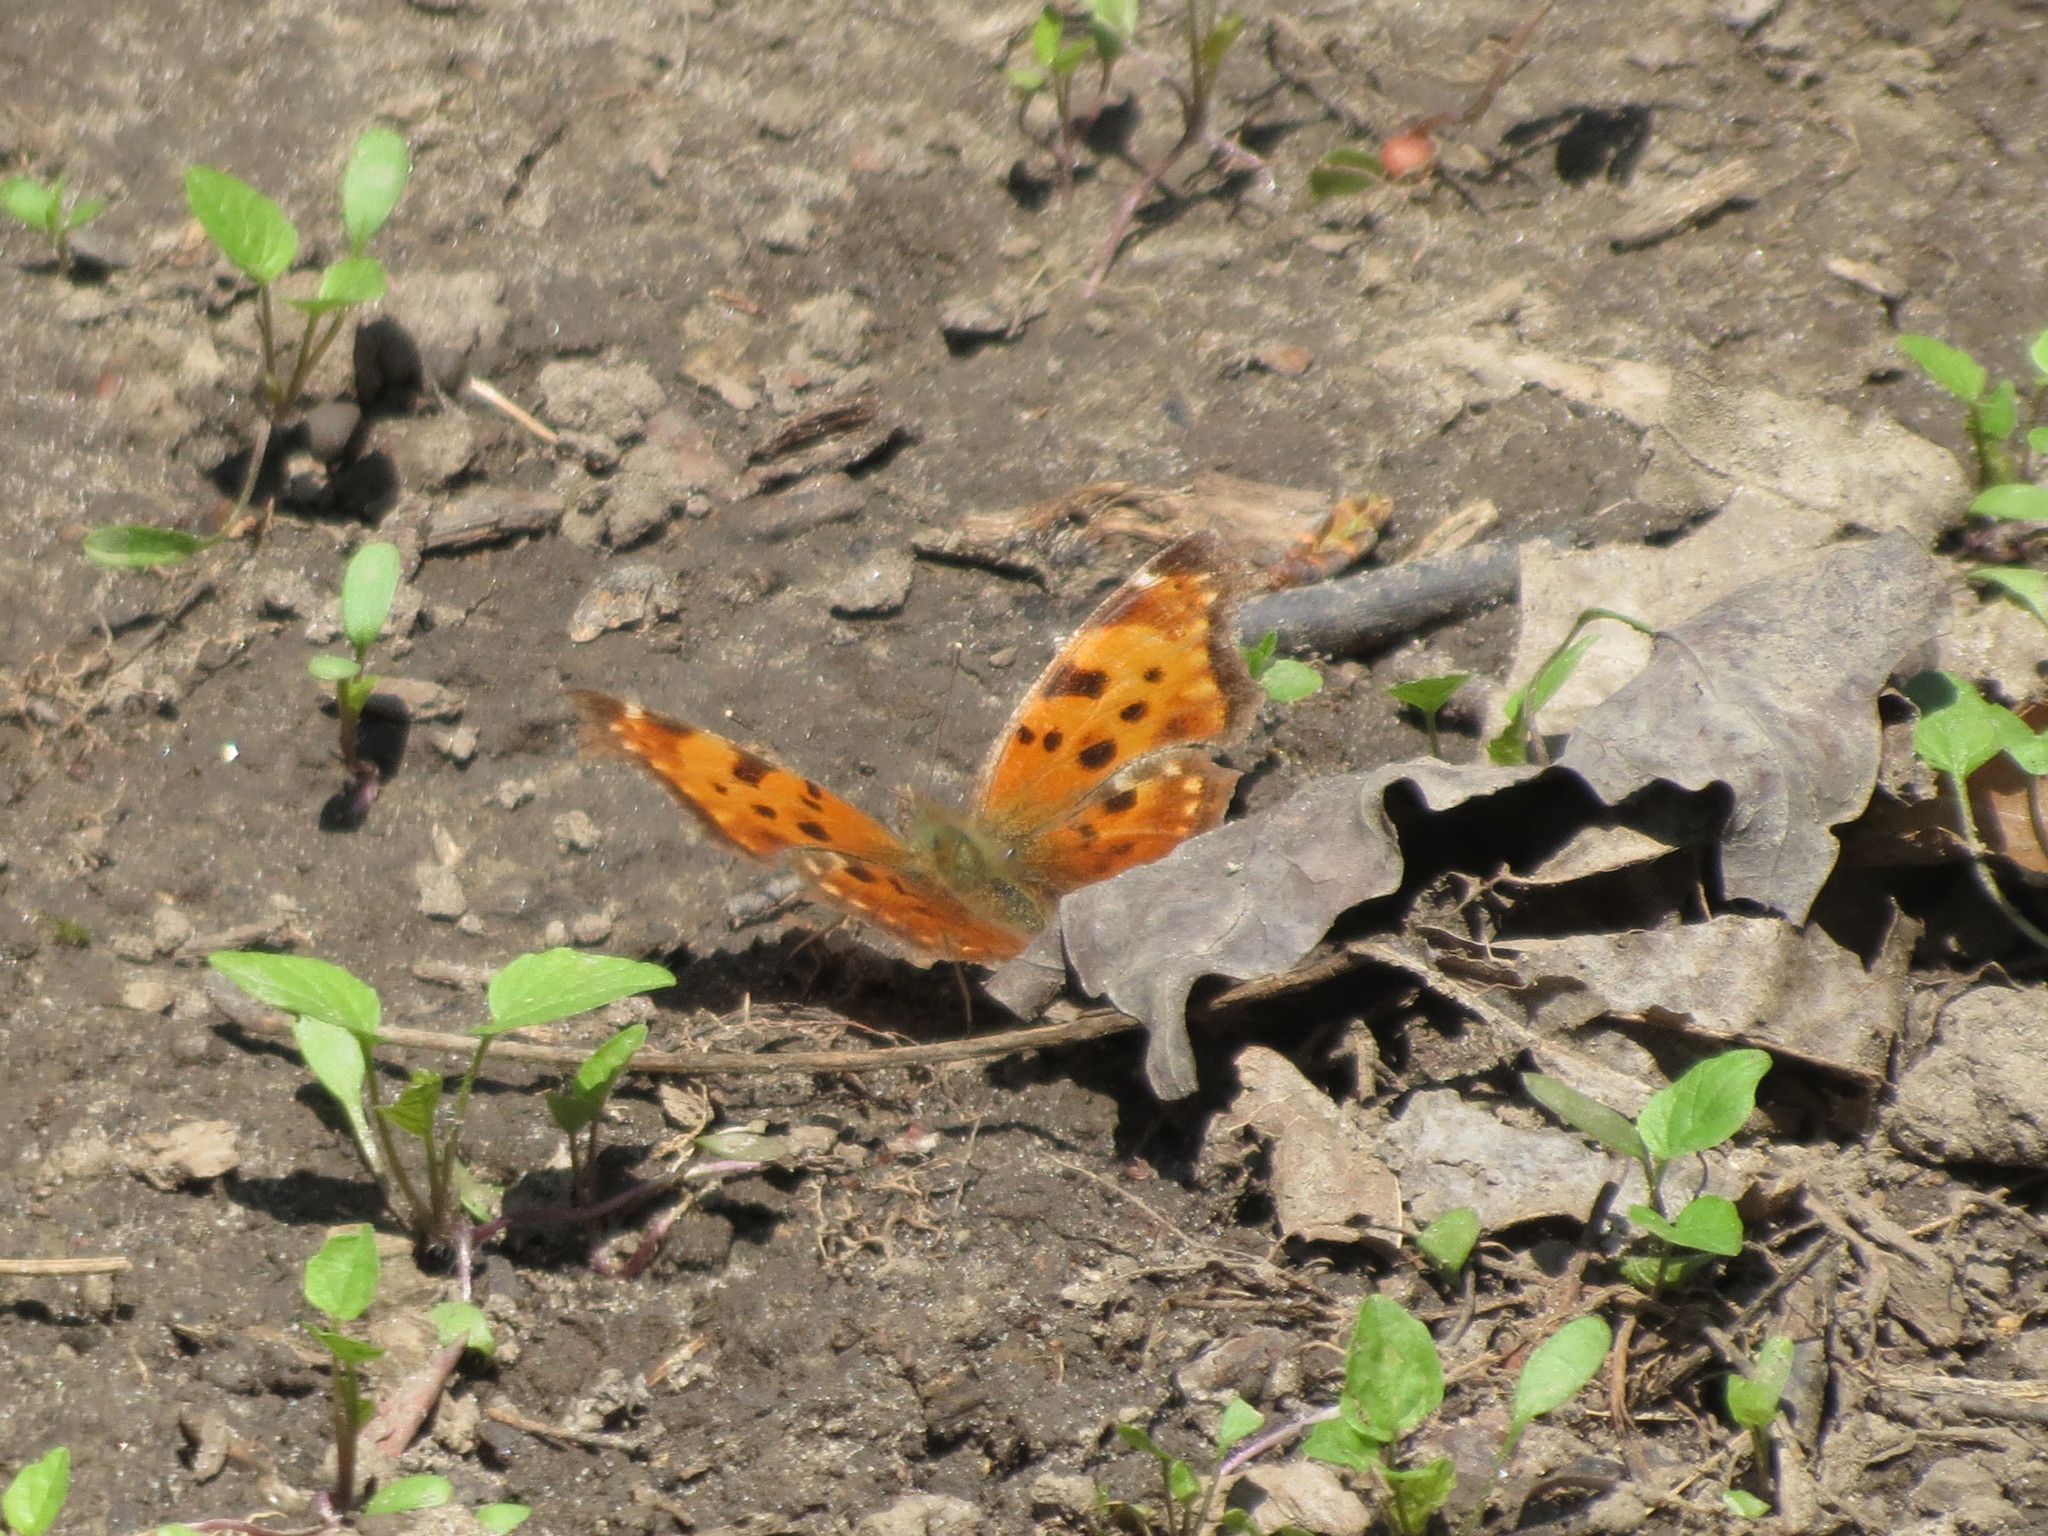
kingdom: Animalia
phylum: Arthropoda
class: Insecta
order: Lepidoptera
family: Nymphalidae
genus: Polygonia
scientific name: Polygonia comma
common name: Eastern comma
